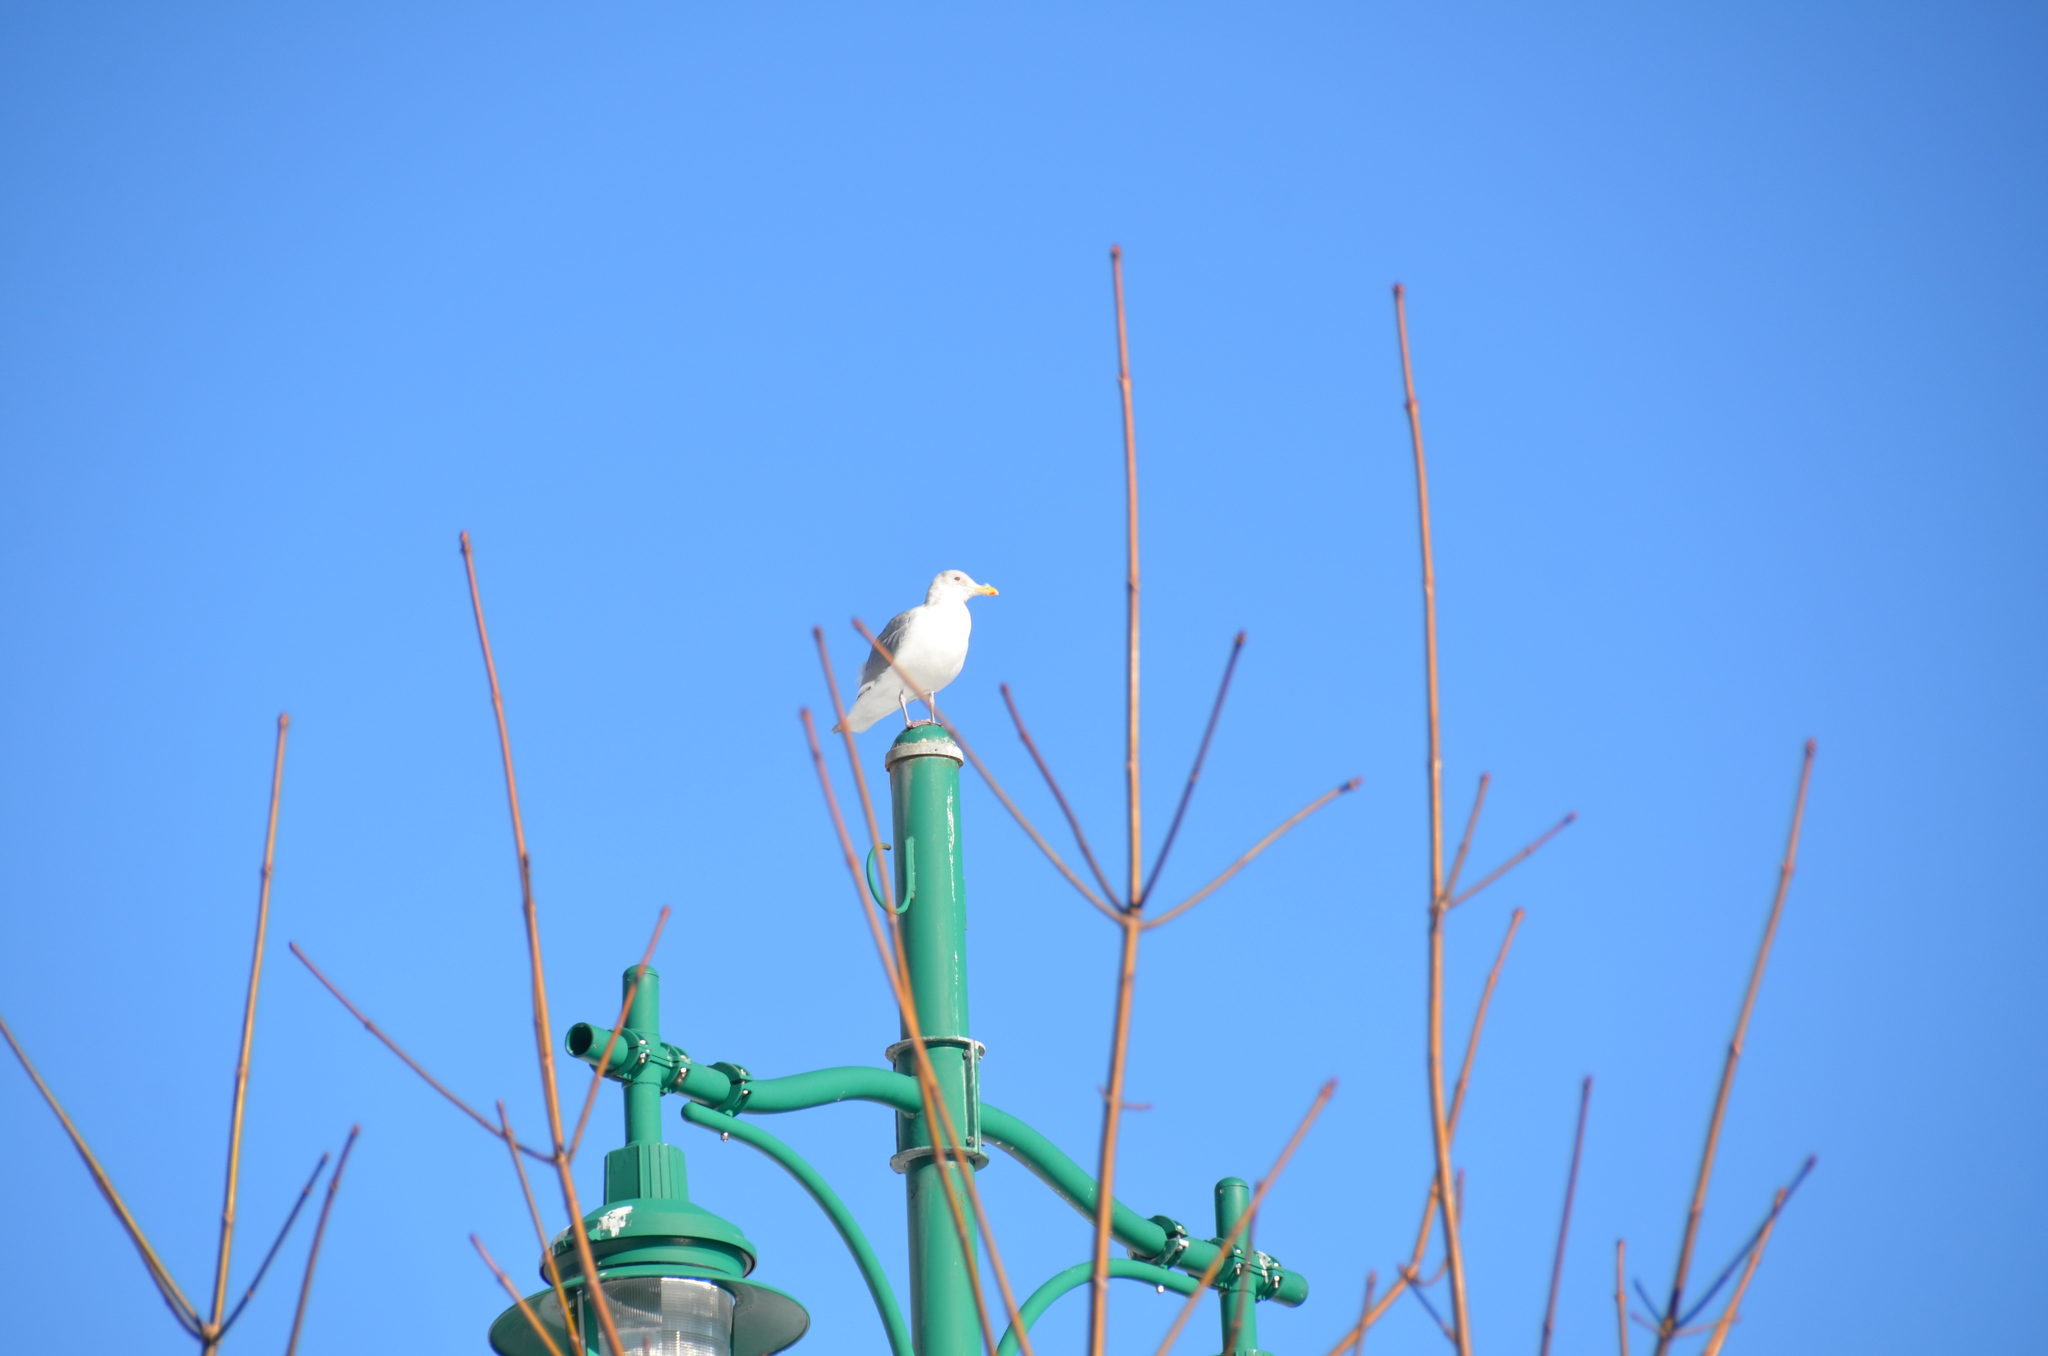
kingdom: Animalia
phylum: Chordata
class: Aves
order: Charadriiformes
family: Laridae
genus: Larus
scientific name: Larus glaucescens
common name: Glaucous-winged gull
